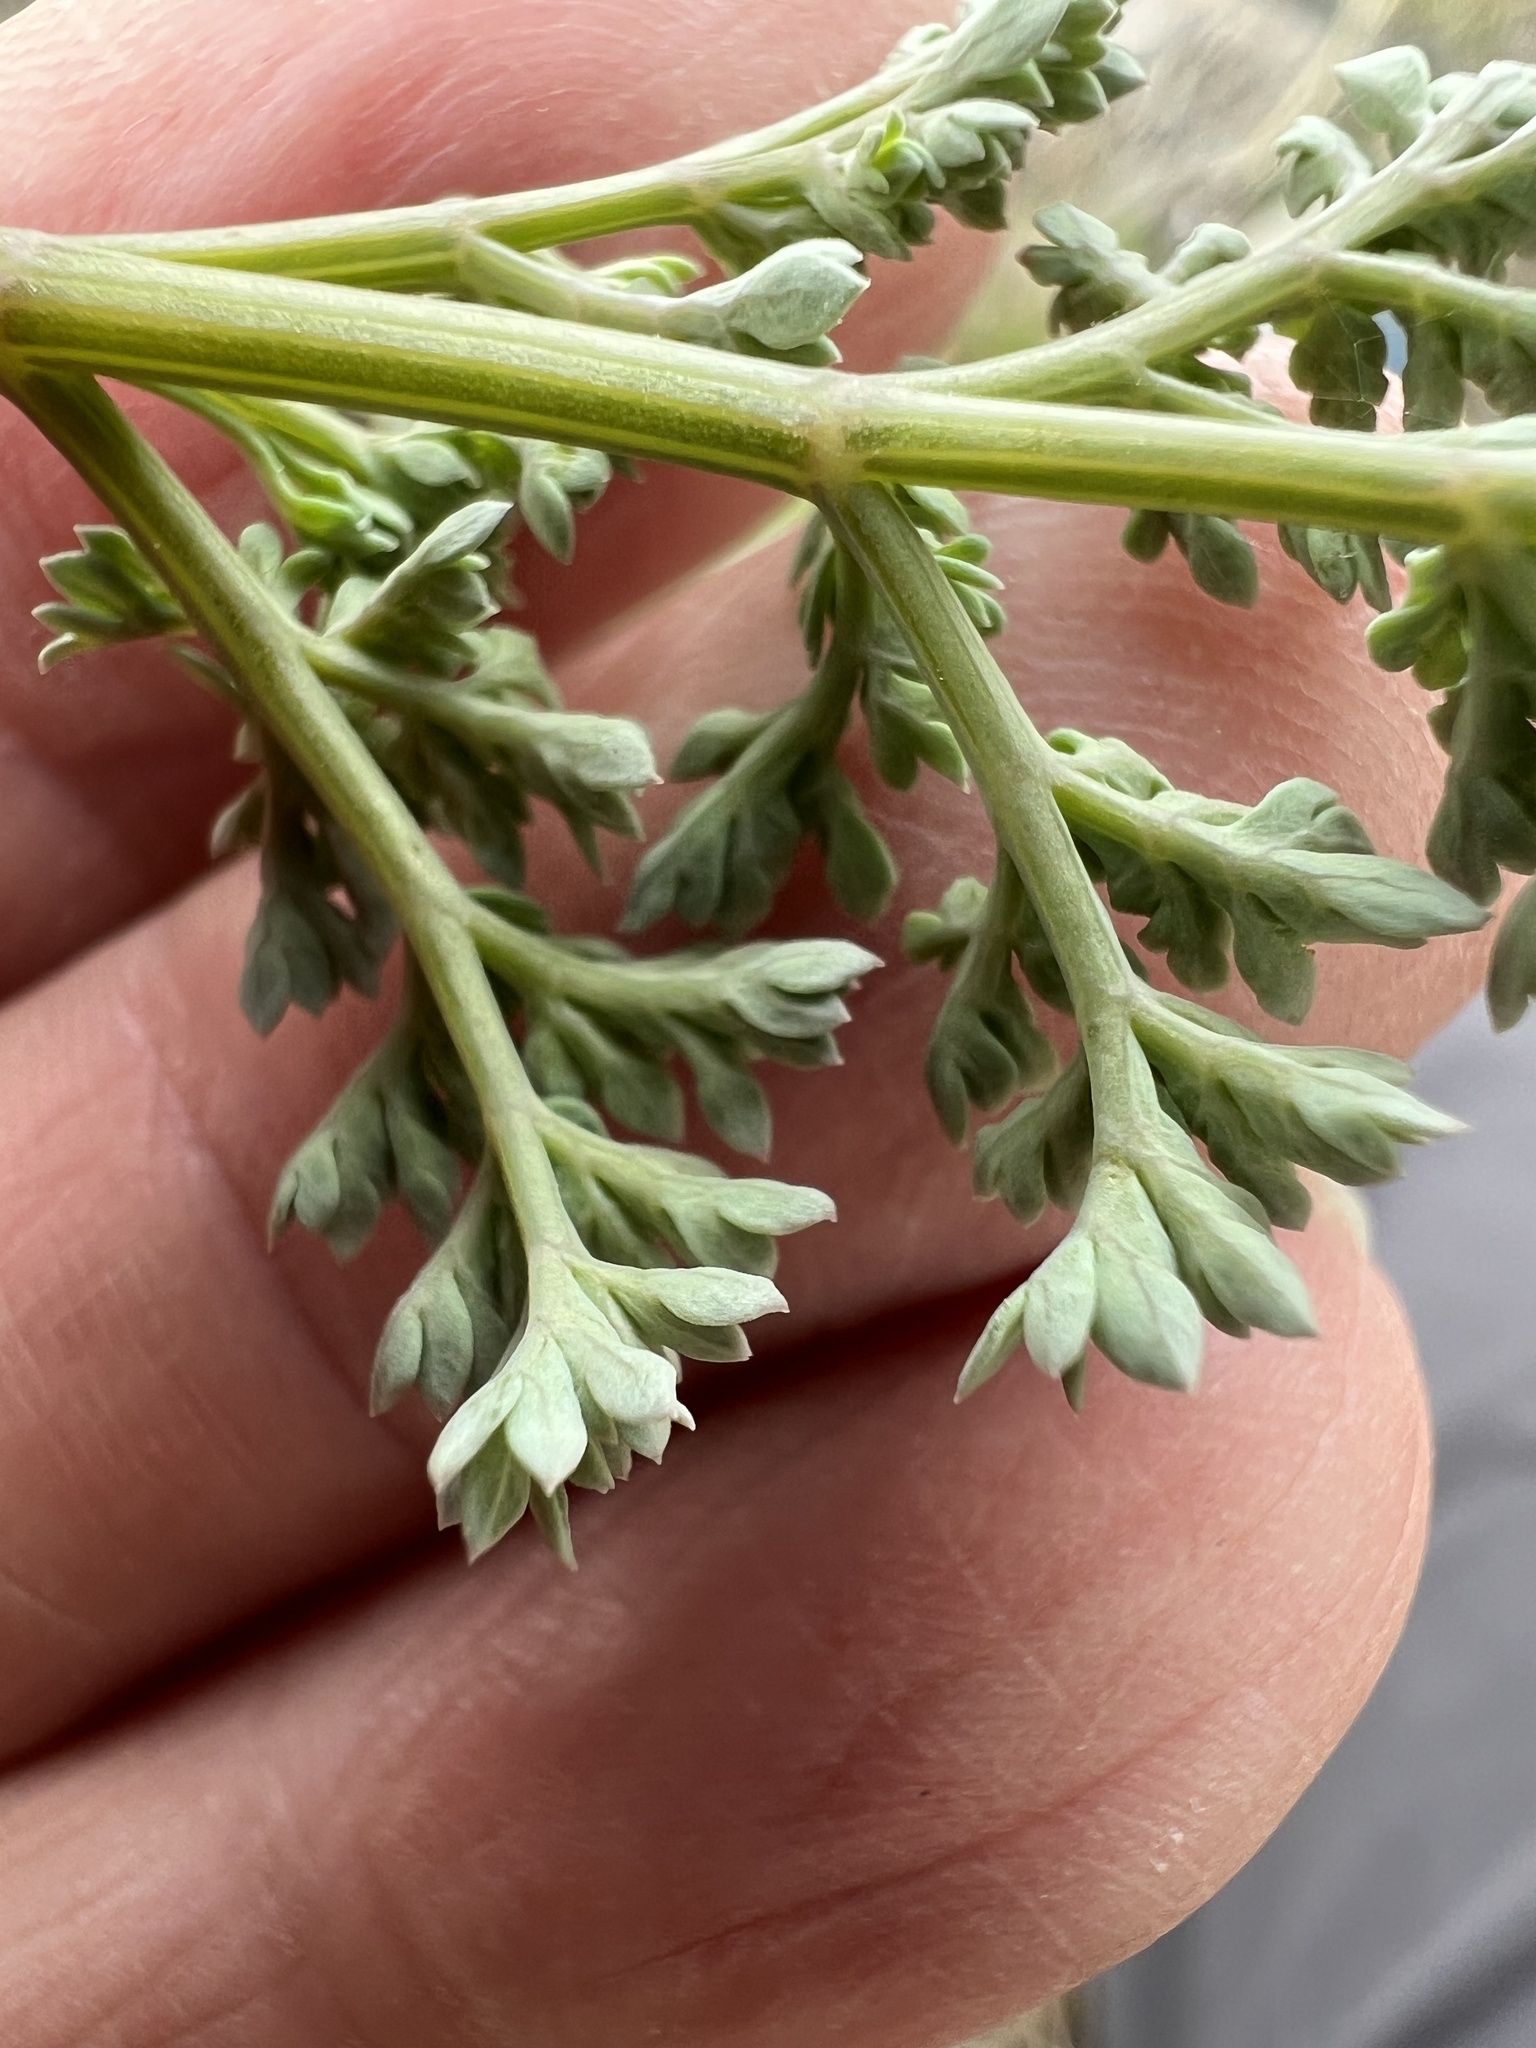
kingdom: Plantae
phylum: Tracheophyta
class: Magnoliopsida
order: Apiales
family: Apiaceae
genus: Lomatium
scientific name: Lomatium roneorum
